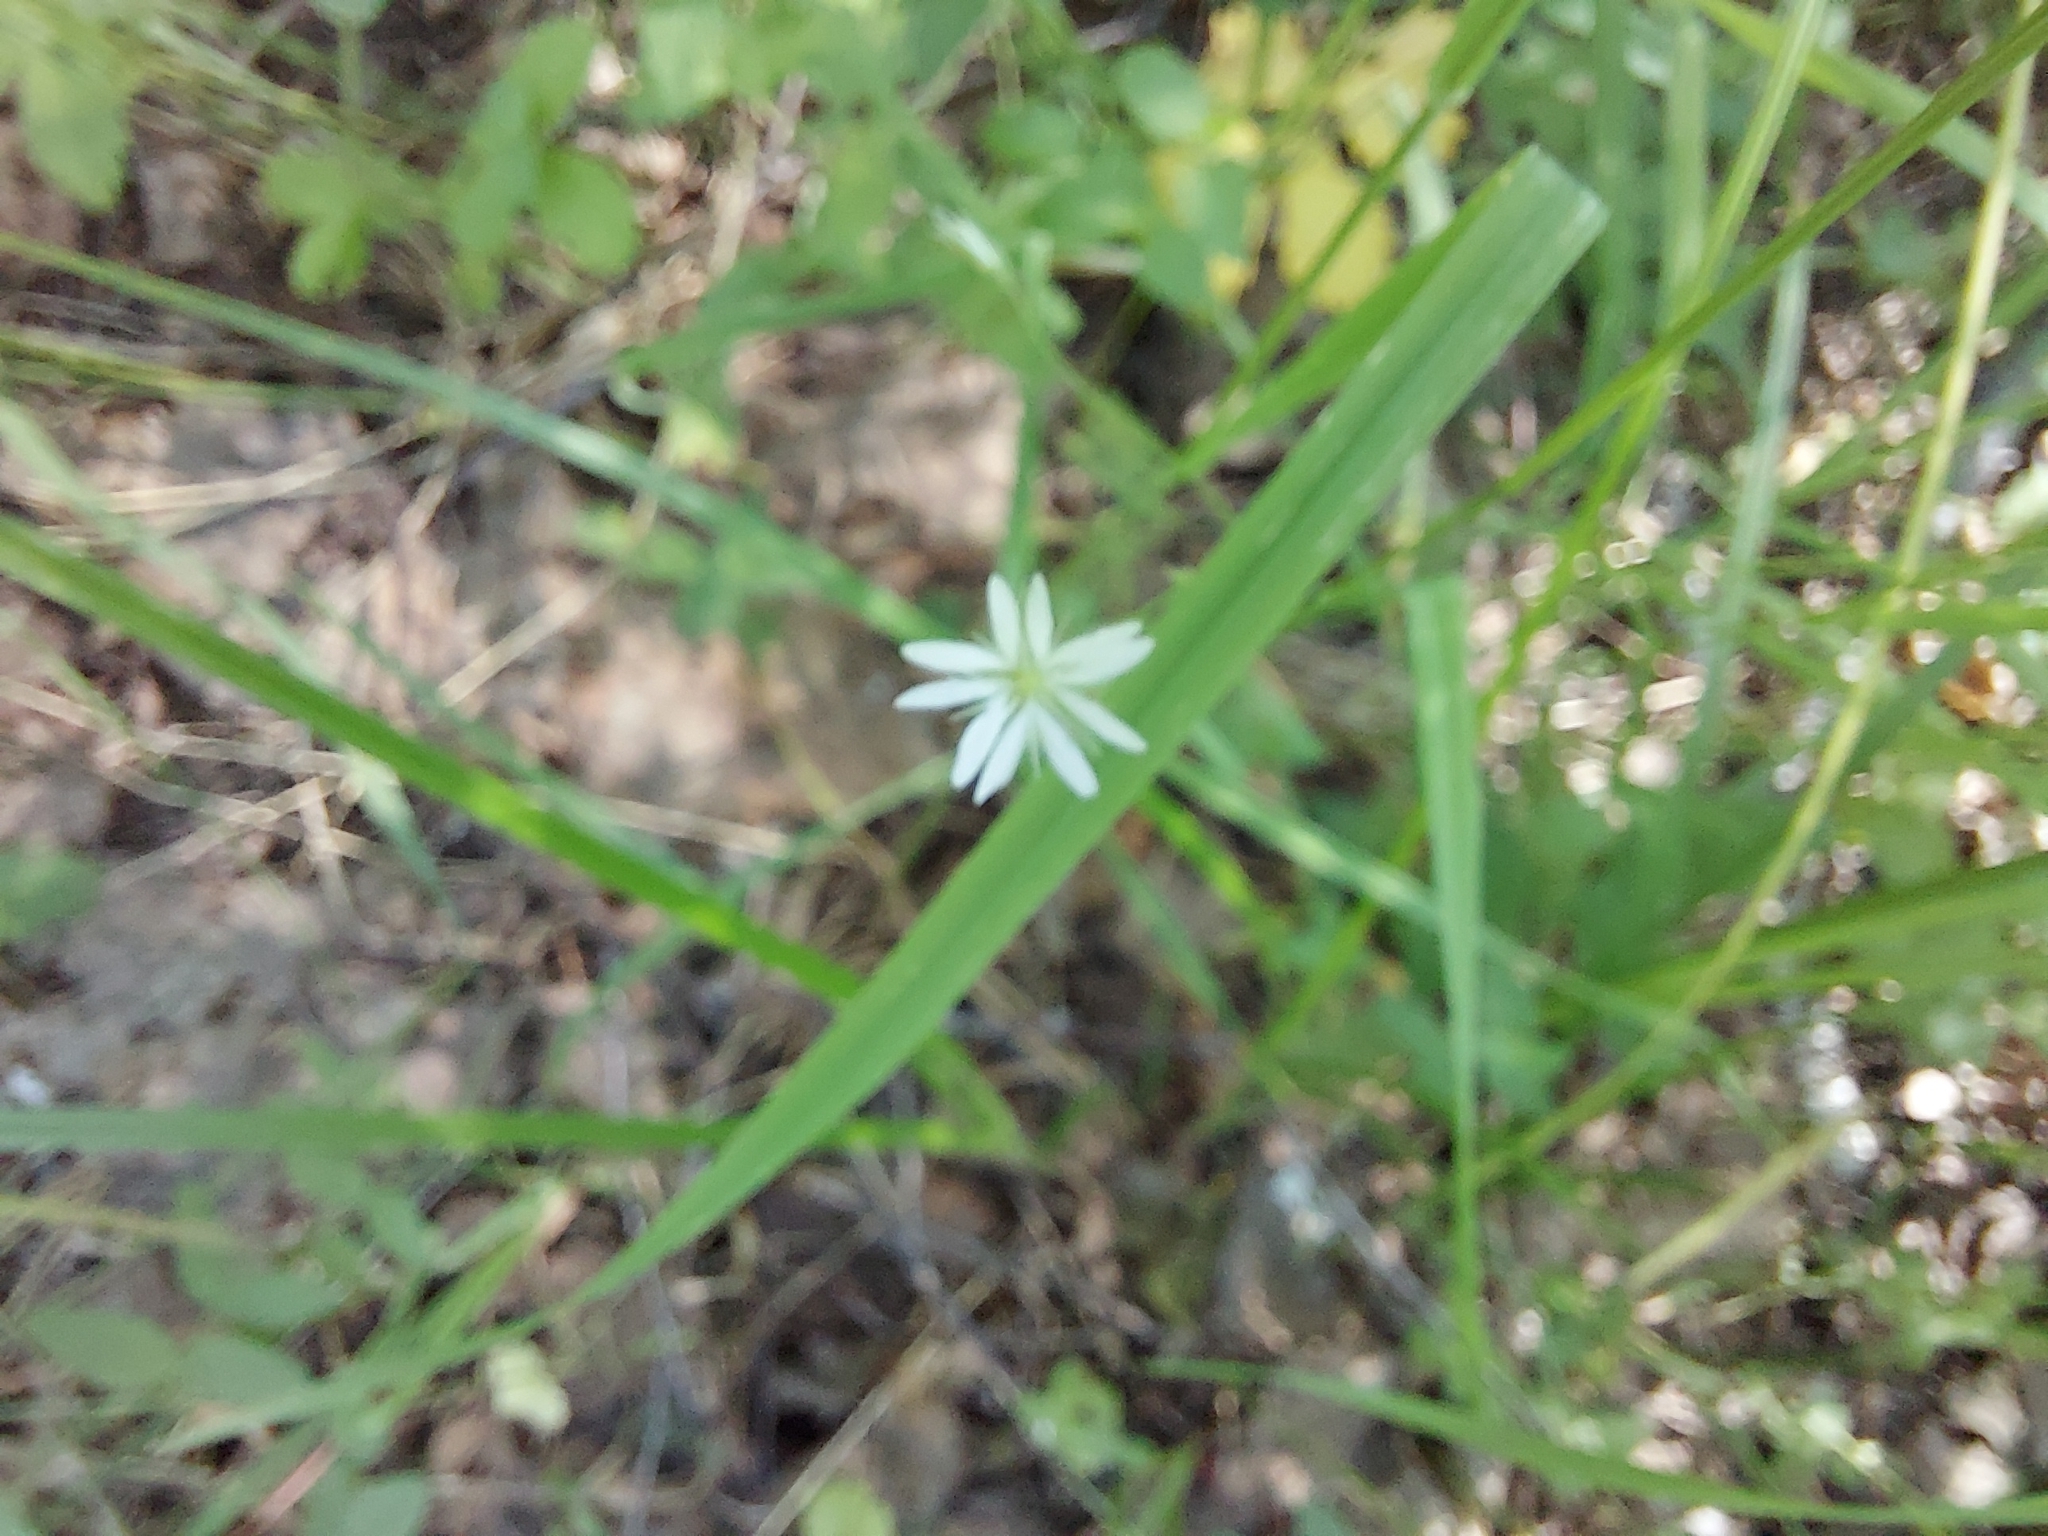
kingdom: Plantae
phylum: Tracheophyta
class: Magnoliopsida
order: Caryophyllales
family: Caryophyllaceae
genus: Stellaria
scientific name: Stellaria graminea
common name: Grass-like starwort
